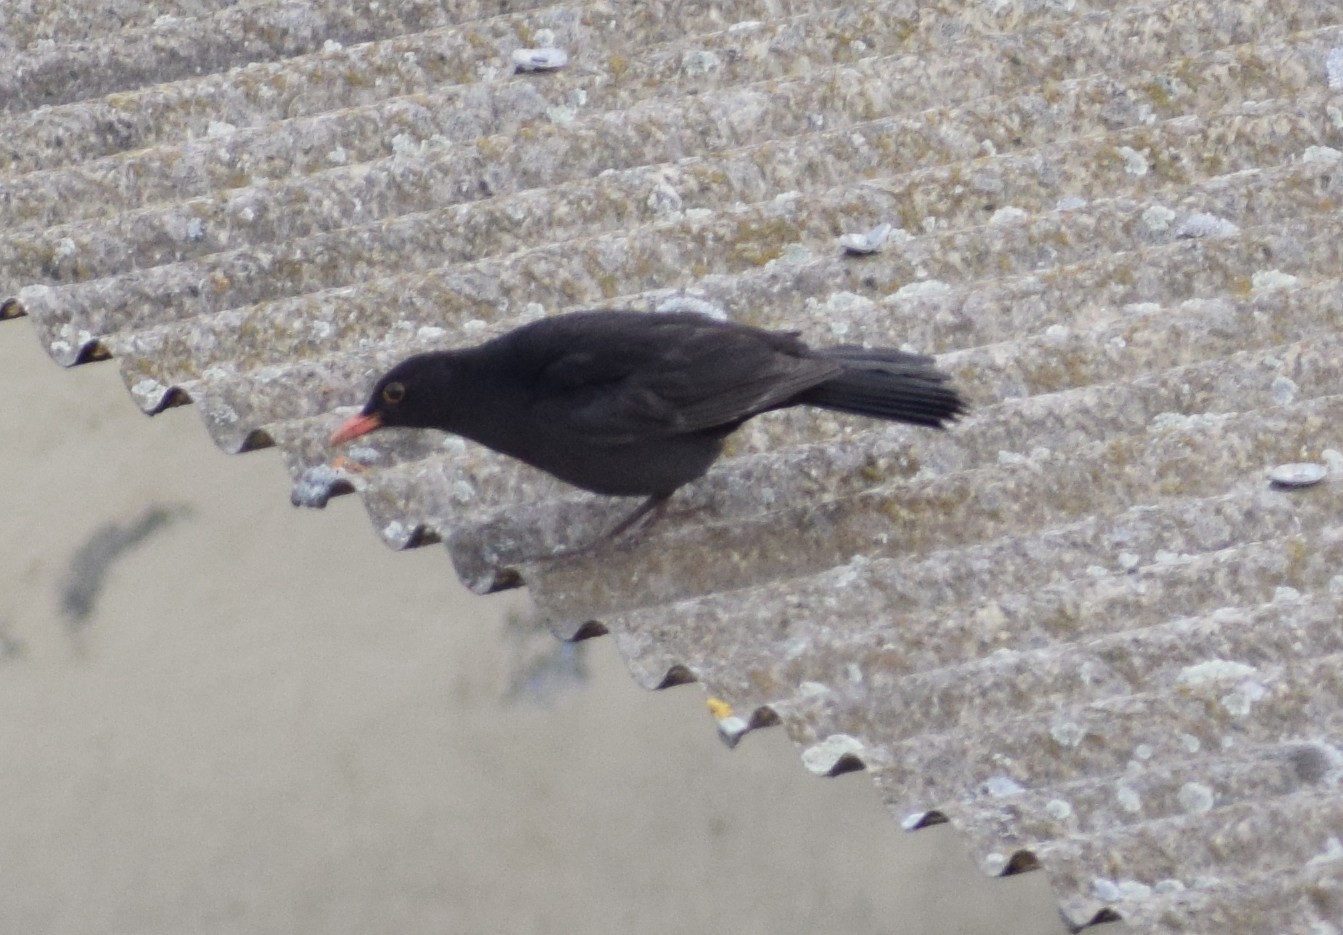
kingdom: Animalia
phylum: Chordata
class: Aves
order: Passeriformes
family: Turdidae
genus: Turdus
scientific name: Turdus merula
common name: Common blackbird
